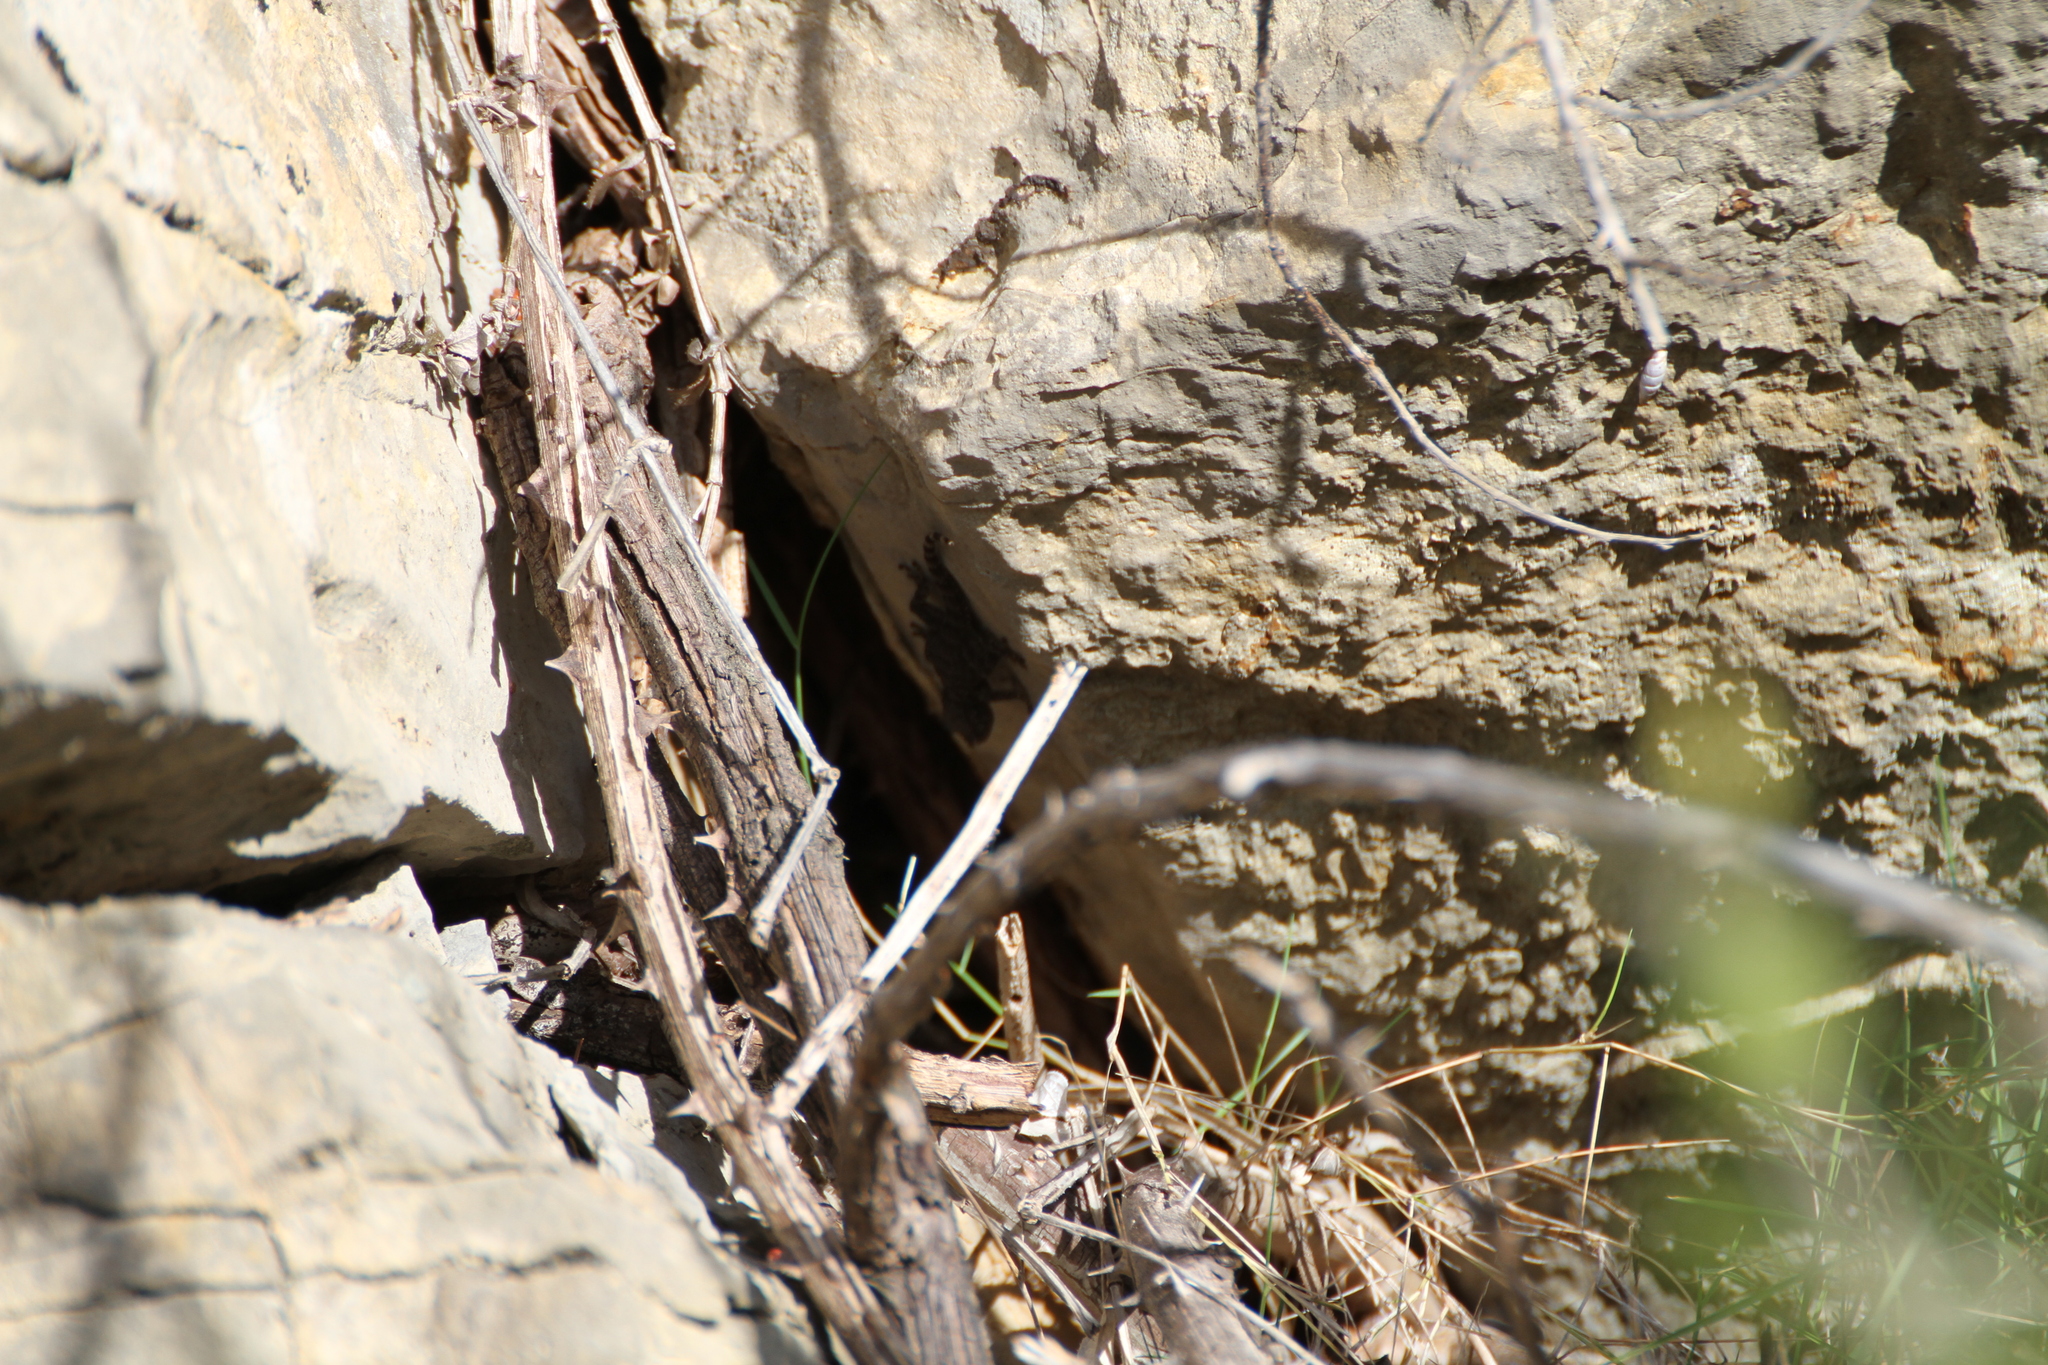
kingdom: Animalia
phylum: Chordata
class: Squamata
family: Phyllodactylidae
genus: Tarentola
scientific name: Tarentola mauritanica
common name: Moorish gecko
